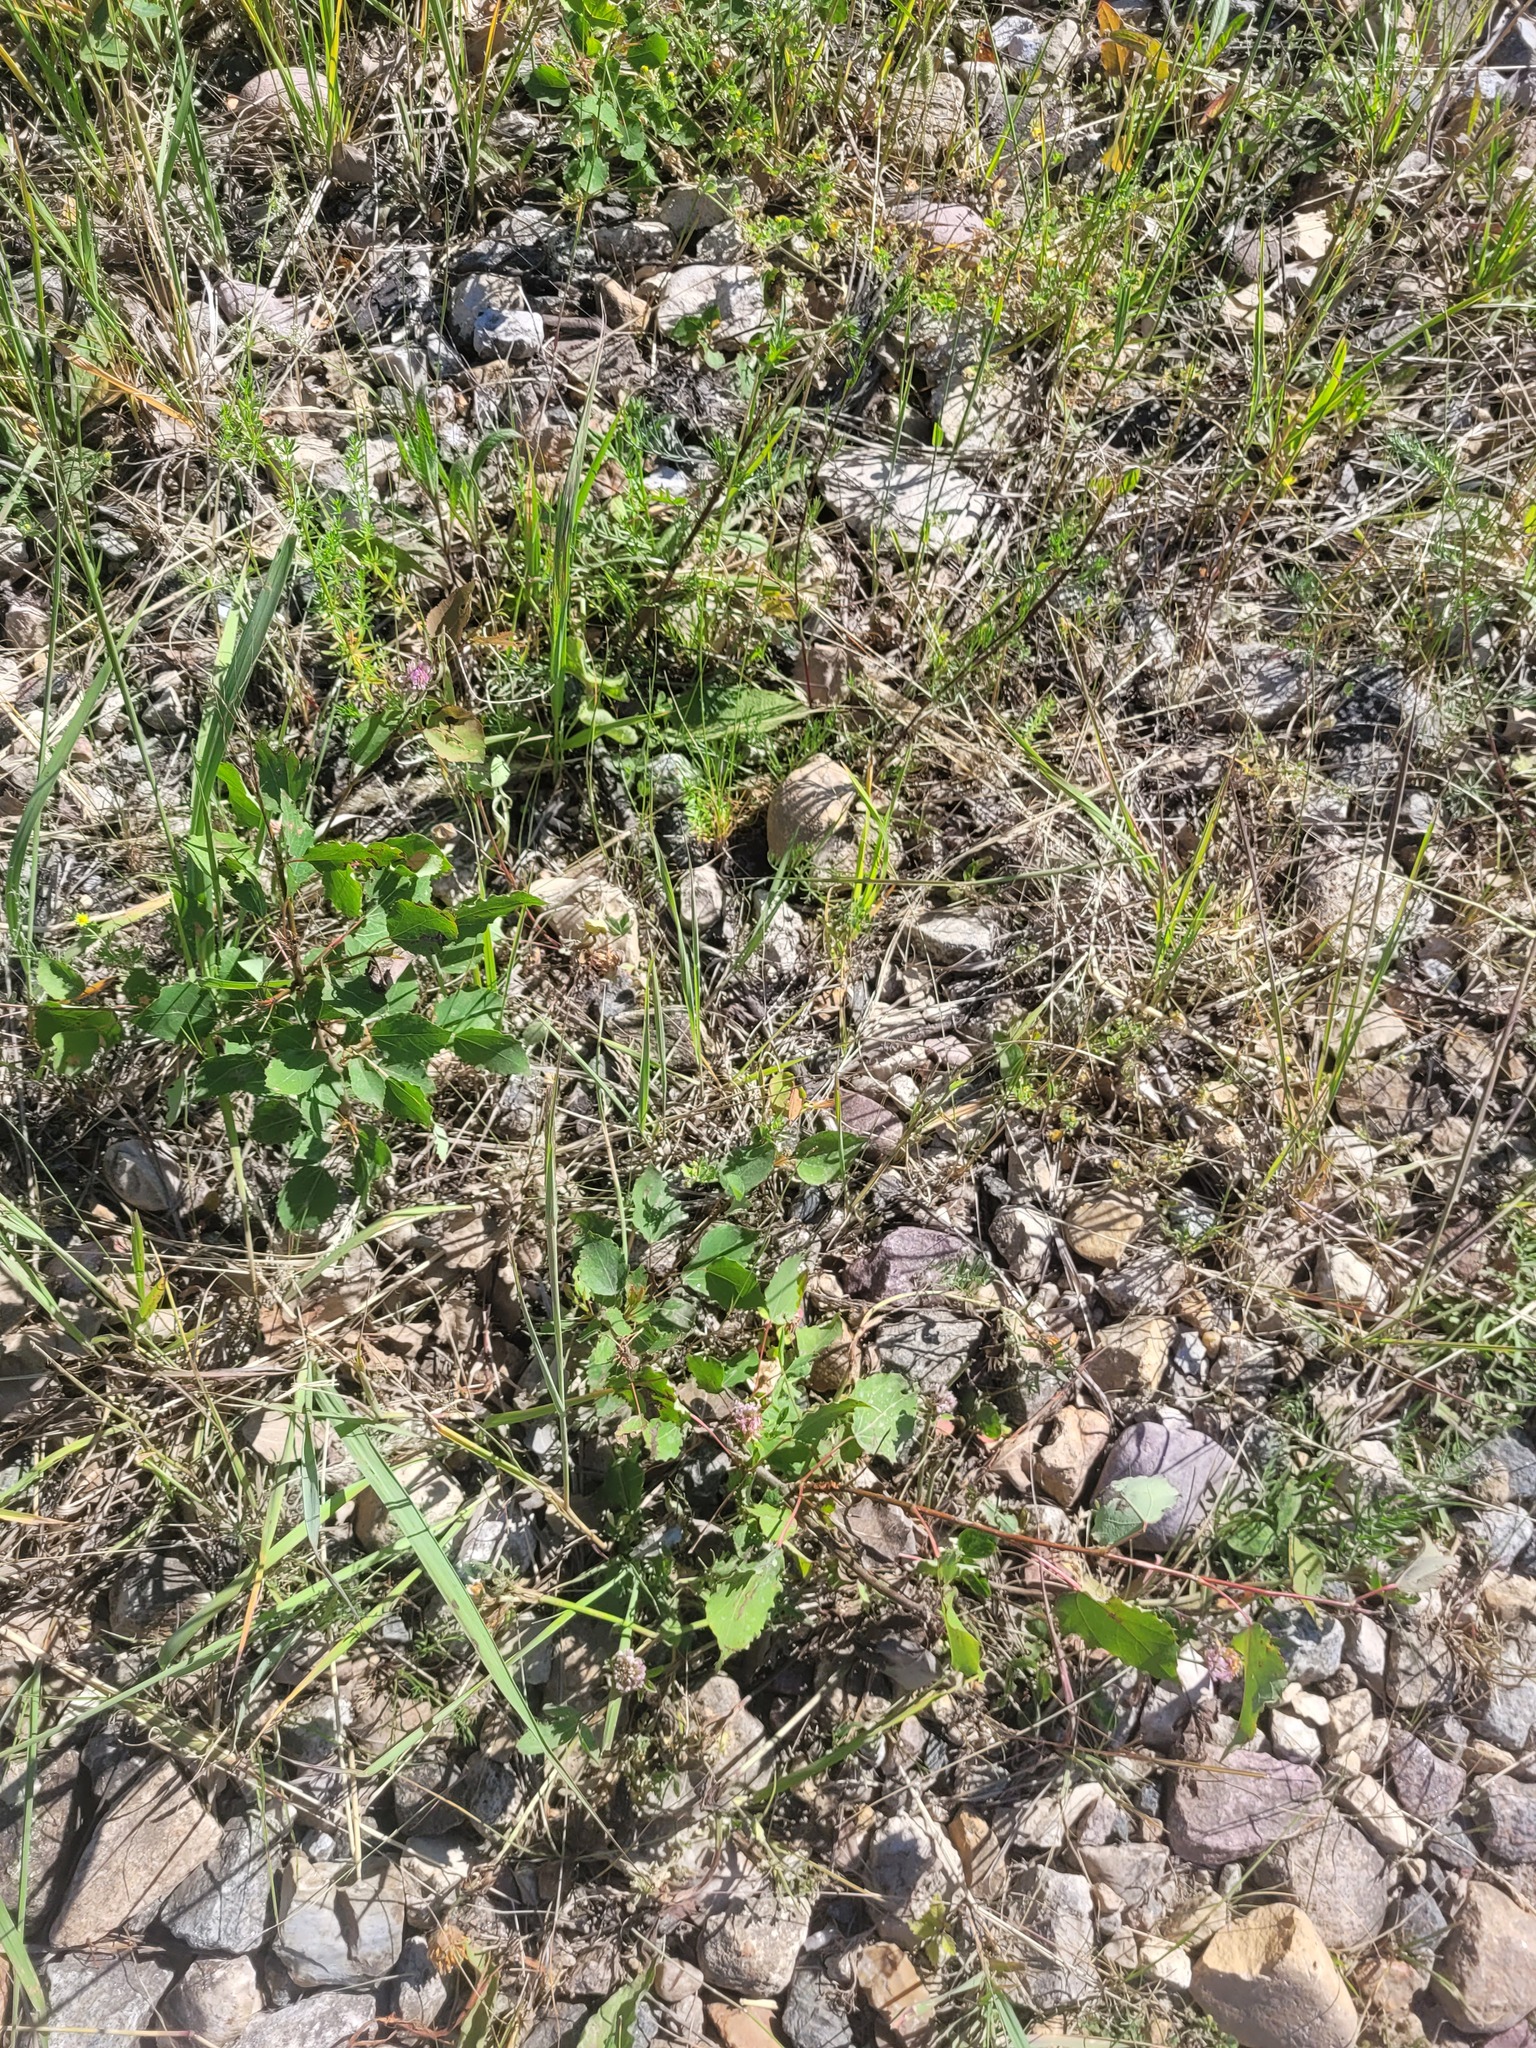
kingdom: Plantae
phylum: Tracheophyta
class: Magnoliopsida
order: Malpighiales
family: Salicaceae
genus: Populus
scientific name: Populus tremula
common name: European aspen
